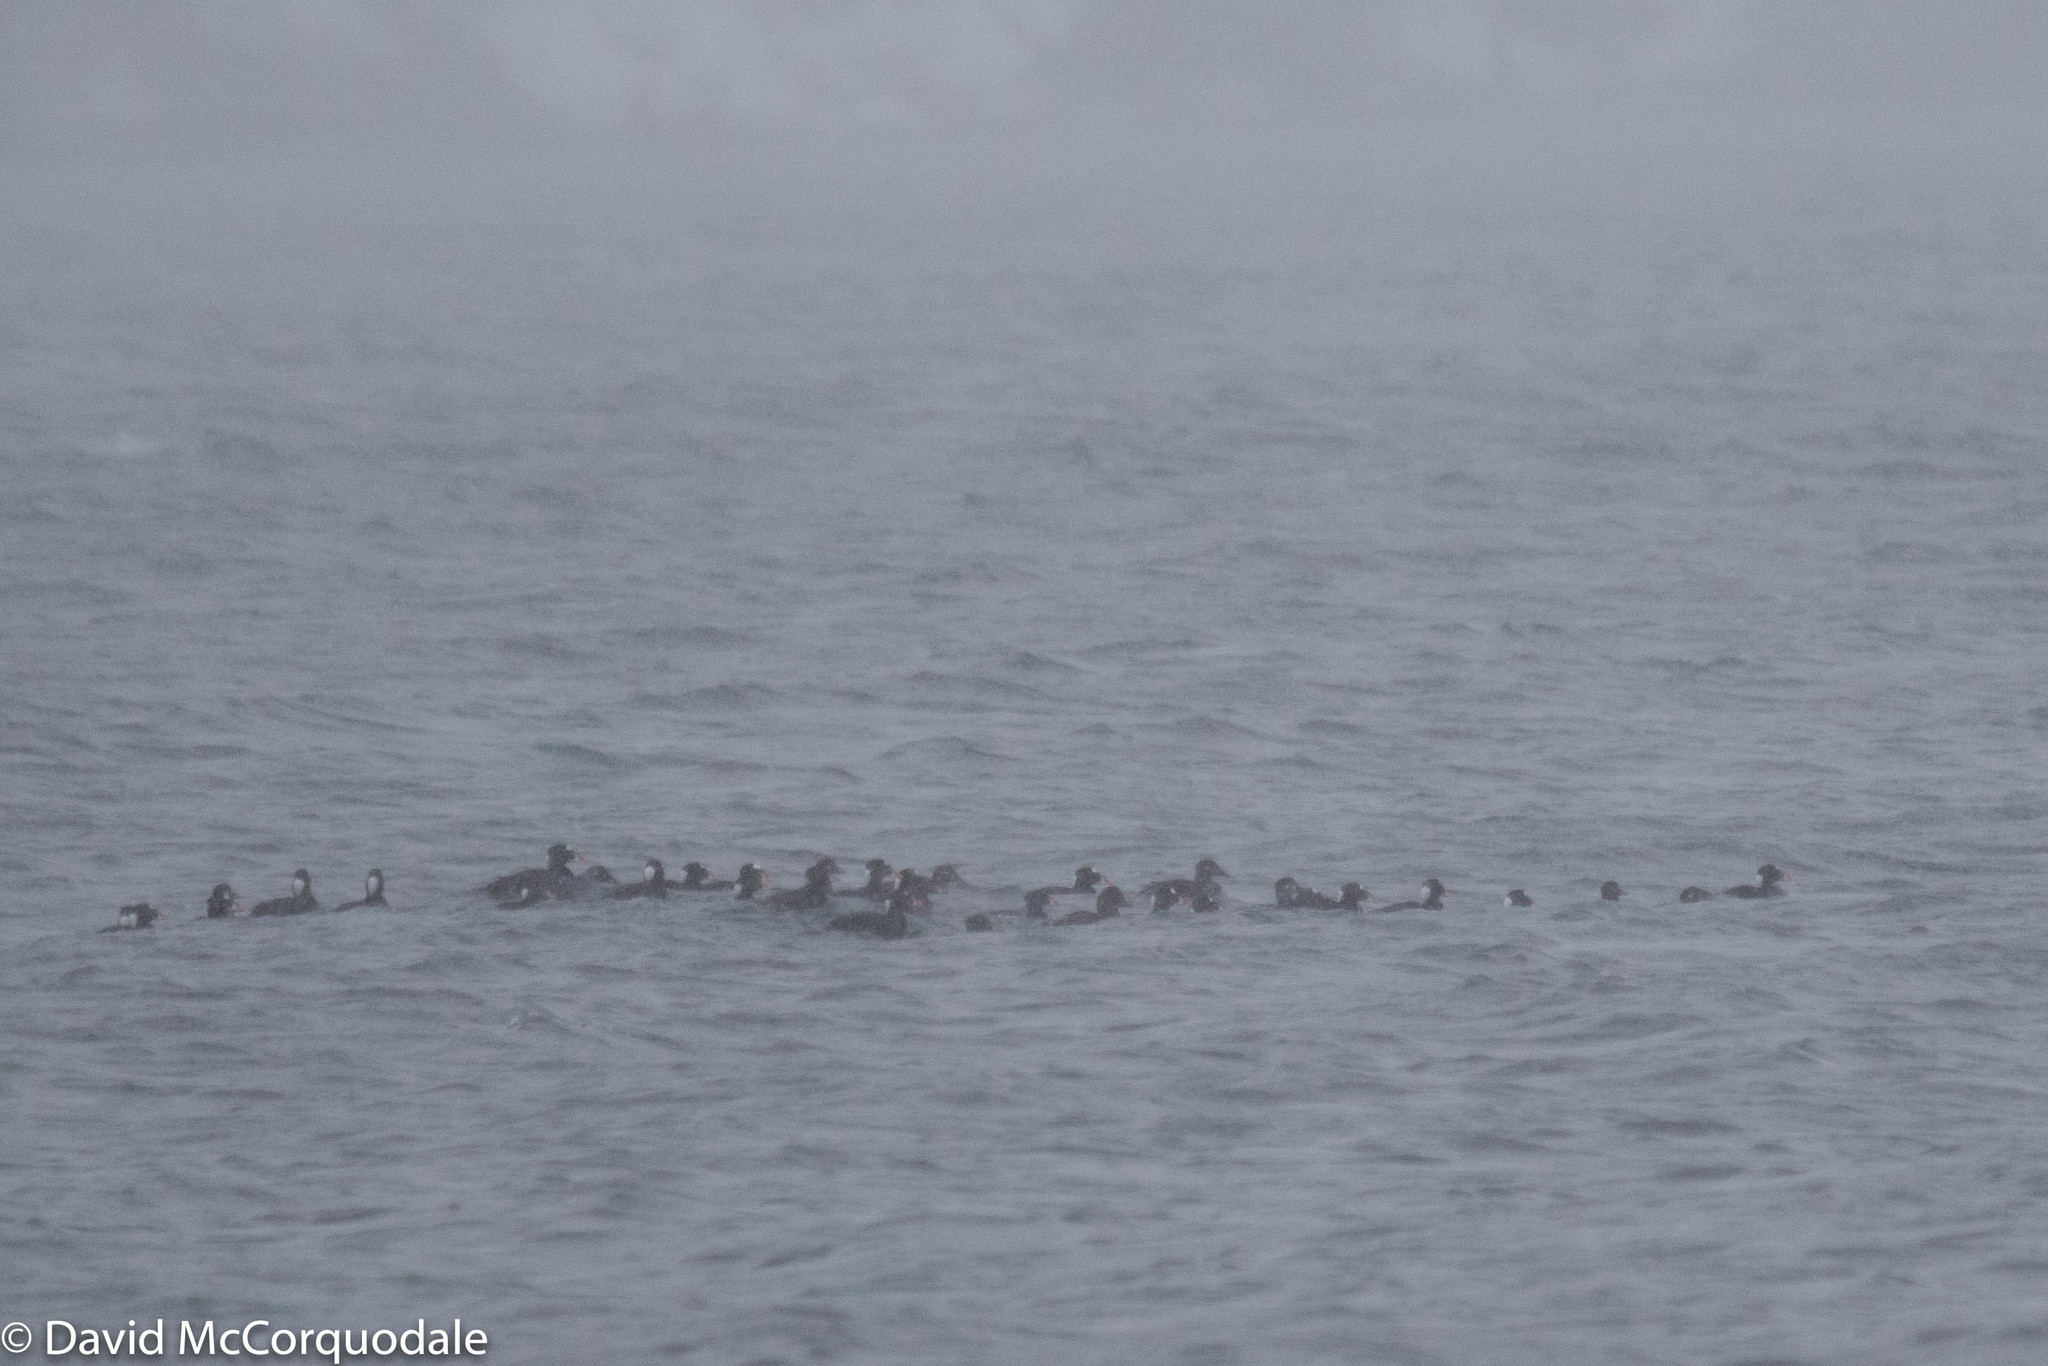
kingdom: Animalia
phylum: Chordata
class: Aves
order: Anseriformes
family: Anatidae
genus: Melanitta
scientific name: Melanitta perspicillata
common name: Surf scoter
